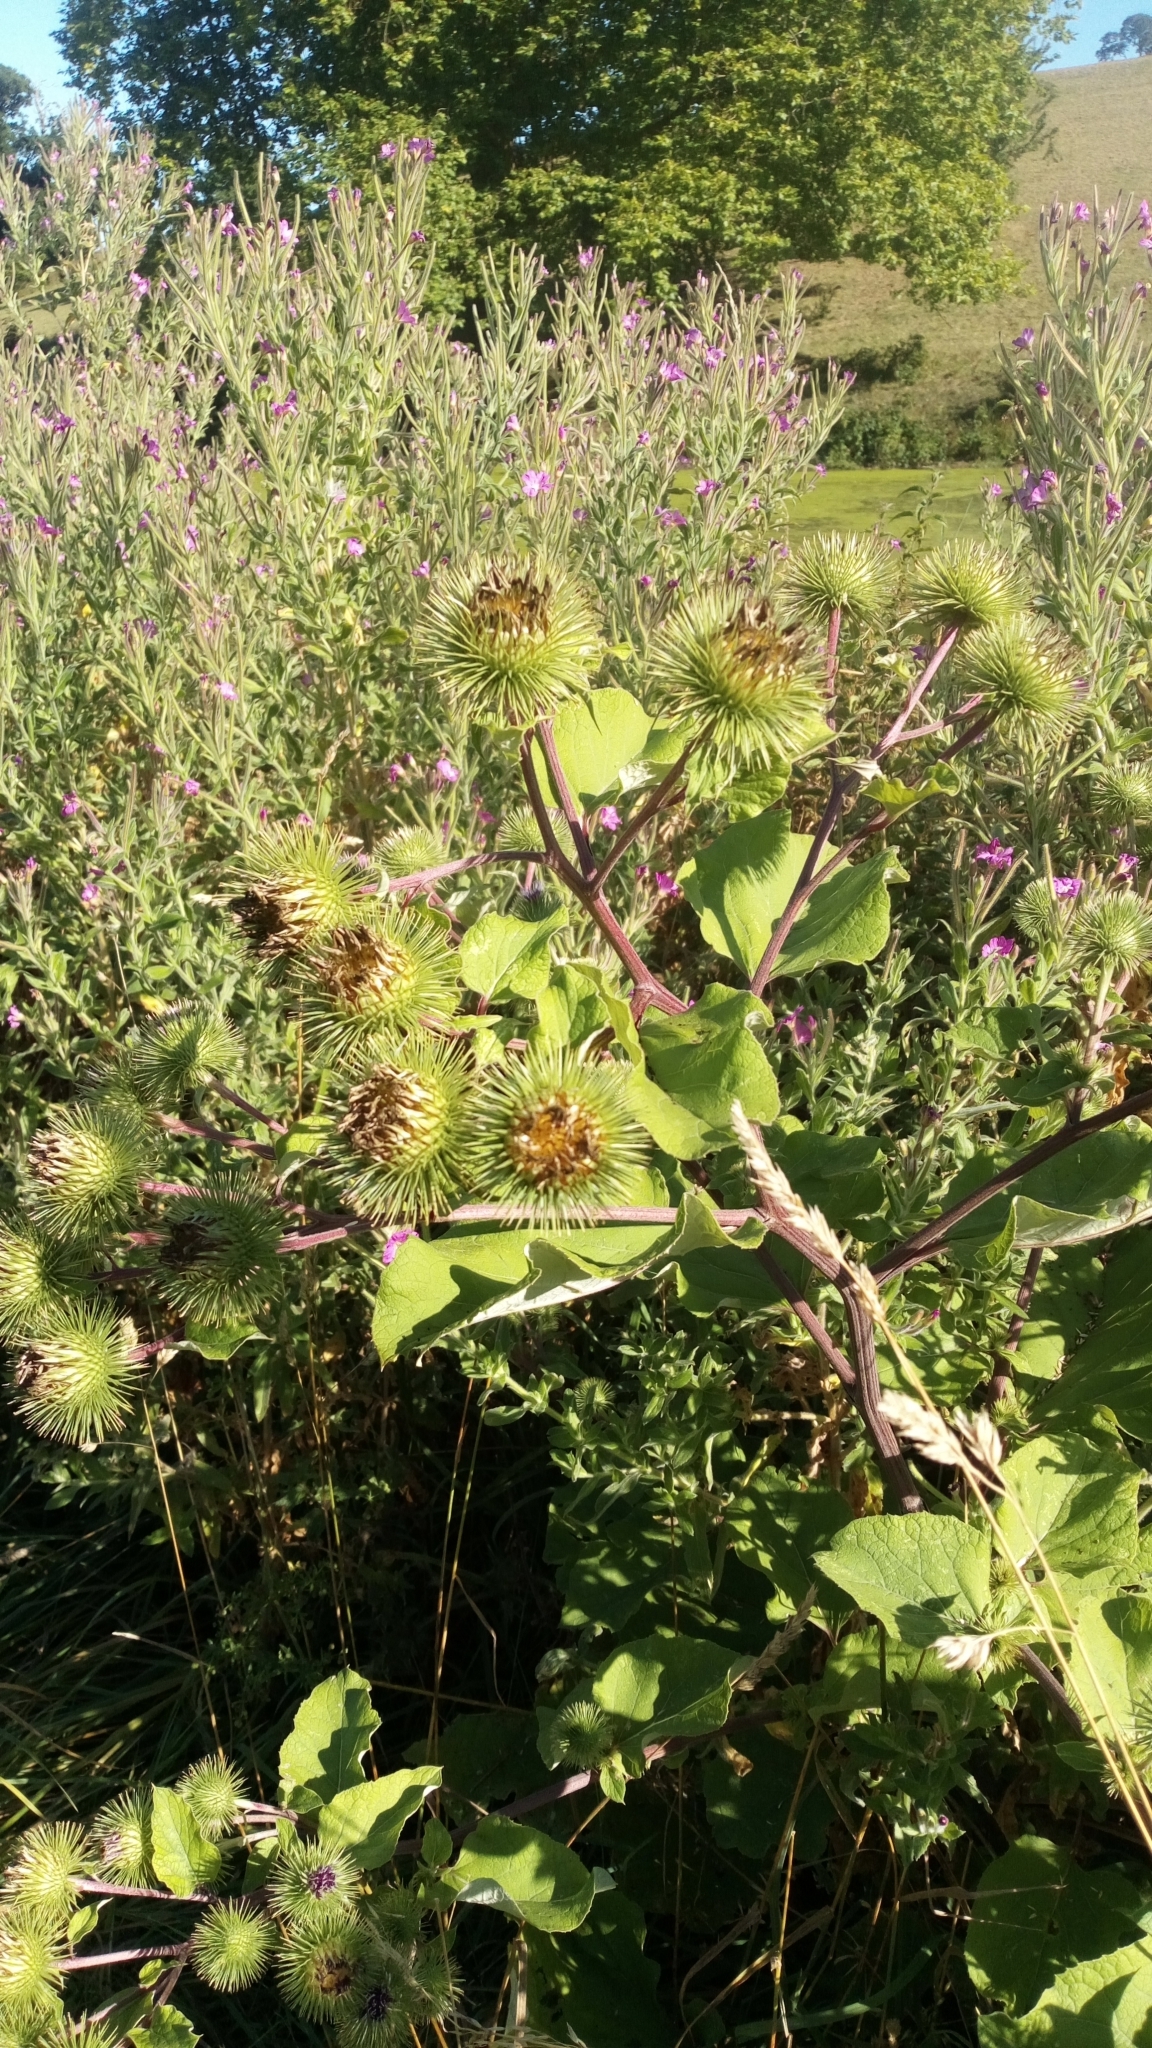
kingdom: Plantae
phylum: Tracheophyta
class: Magnoliopsida
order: Asterales
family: Asteraceae
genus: Arctium
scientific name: Arctium lappa
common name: Greater burdock
